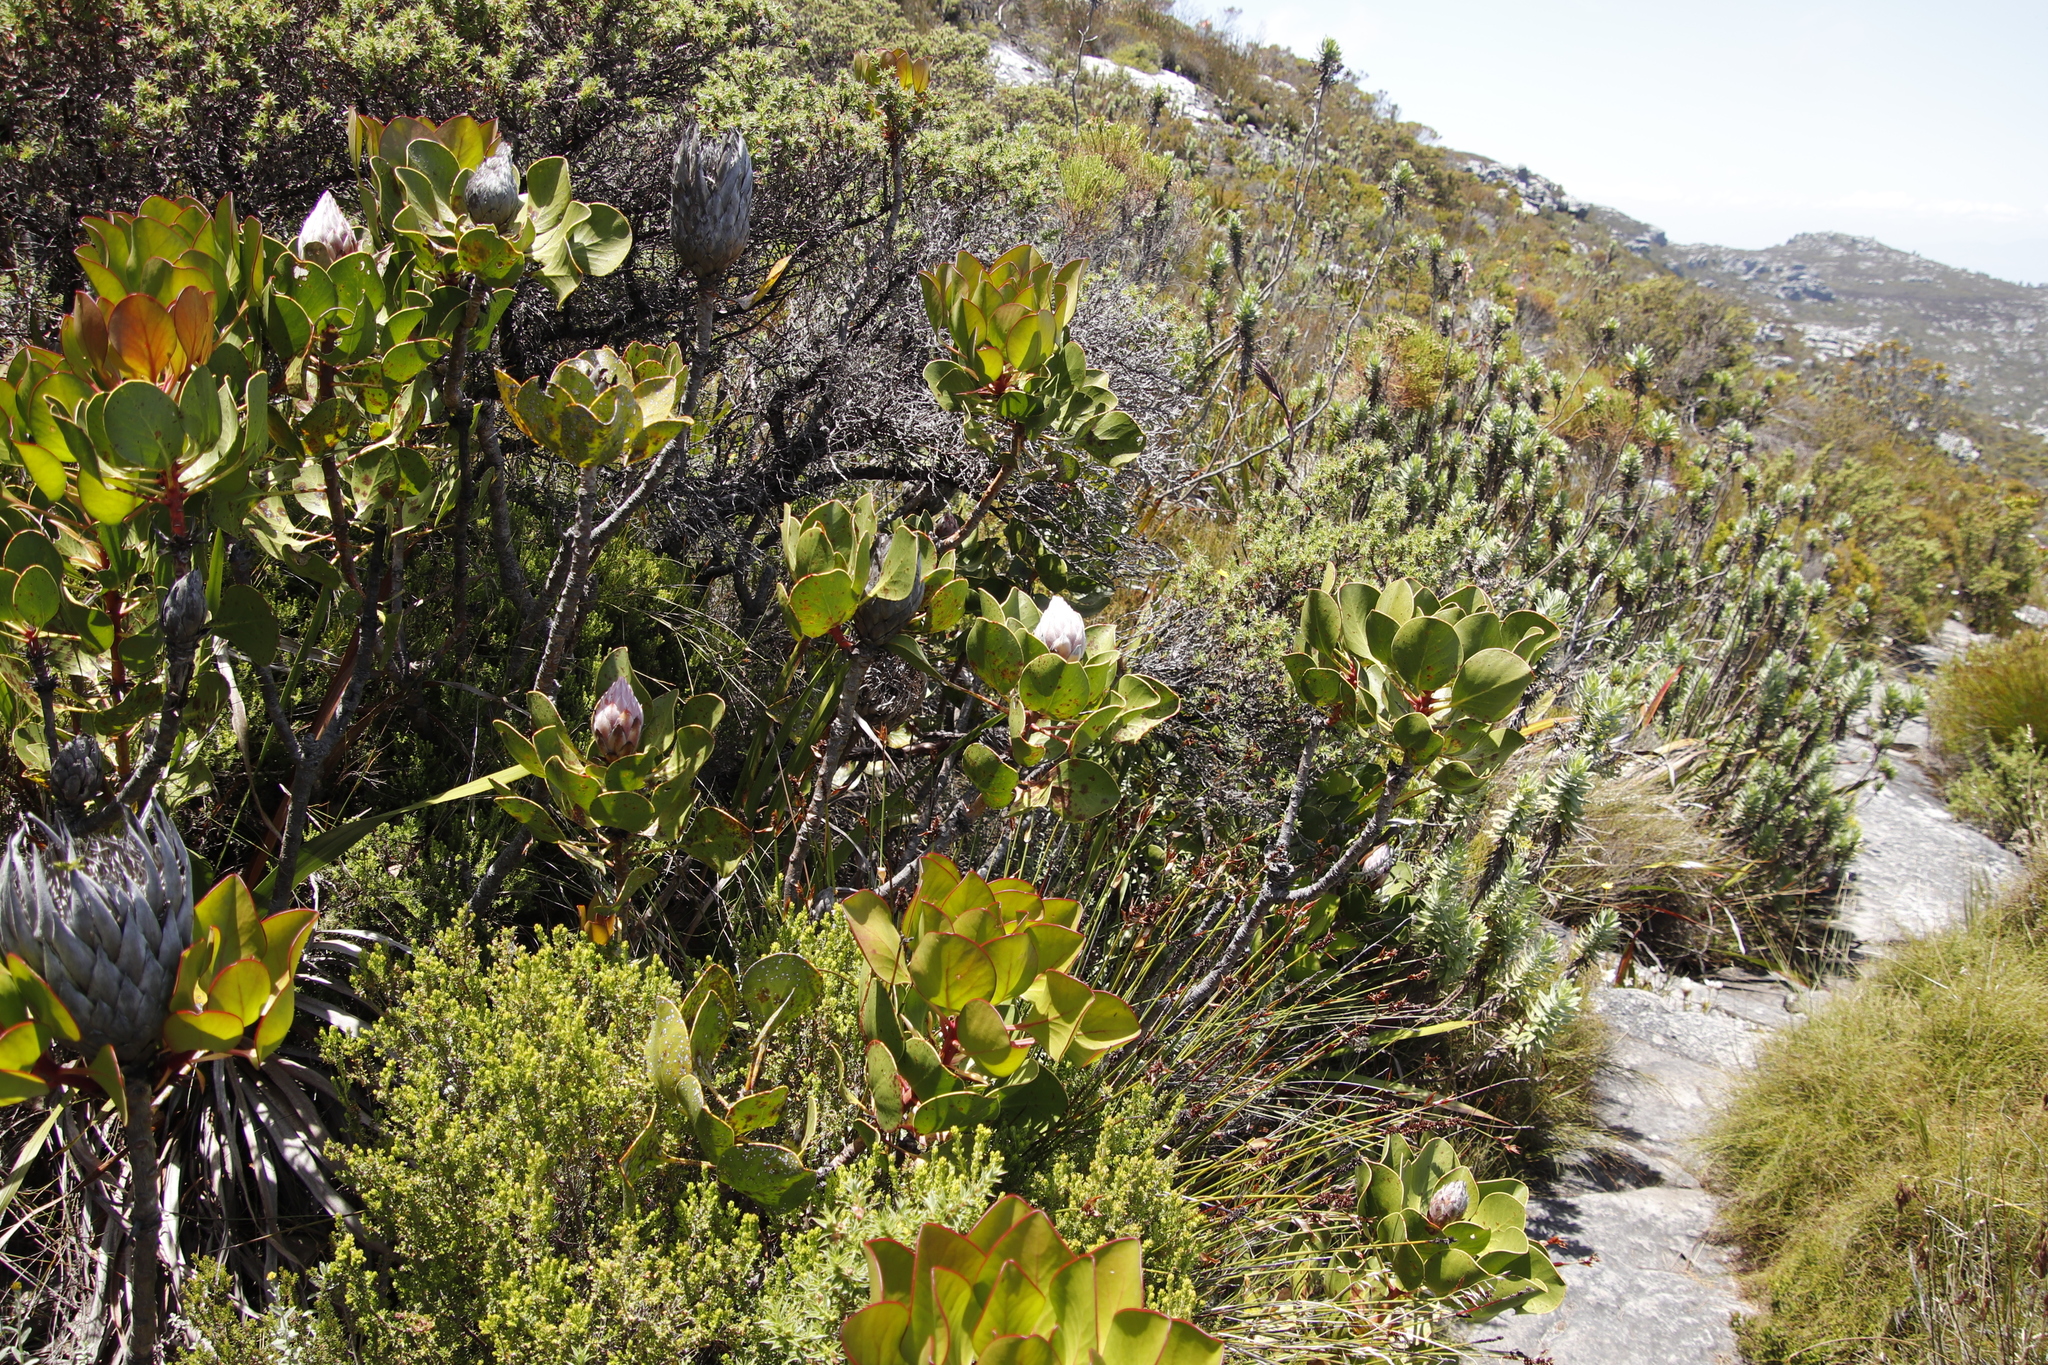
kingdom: Plantae
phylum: Tracheophyta
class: Magnoliopsida
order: Proteales
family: Proteaceae
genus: Protea
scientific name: Protea cynaroides
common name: King protea
